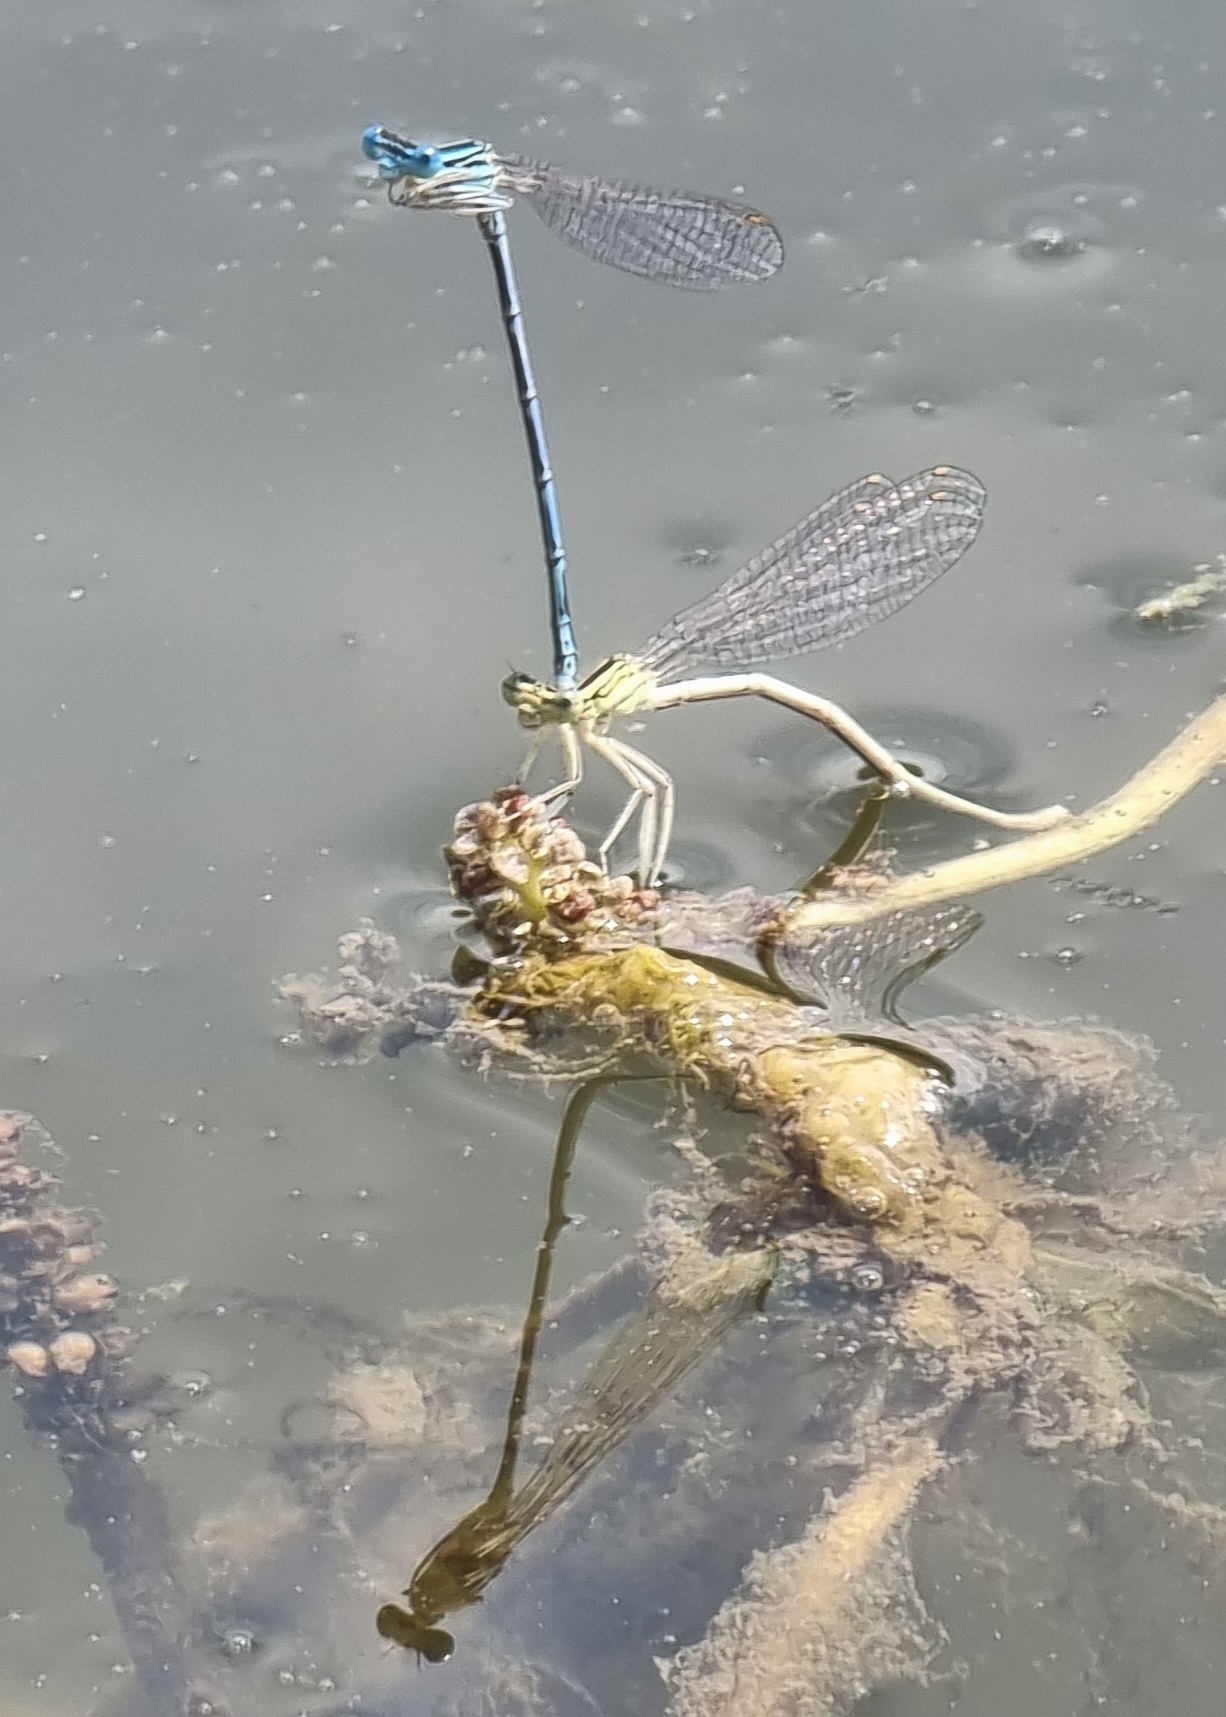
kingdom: Animalia
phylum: Arthropoda
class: Insecta
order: Odonata
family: Platycnemididae
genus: Platycnemis
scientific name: Platycnemis pennipes
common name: White-legged damselfly
